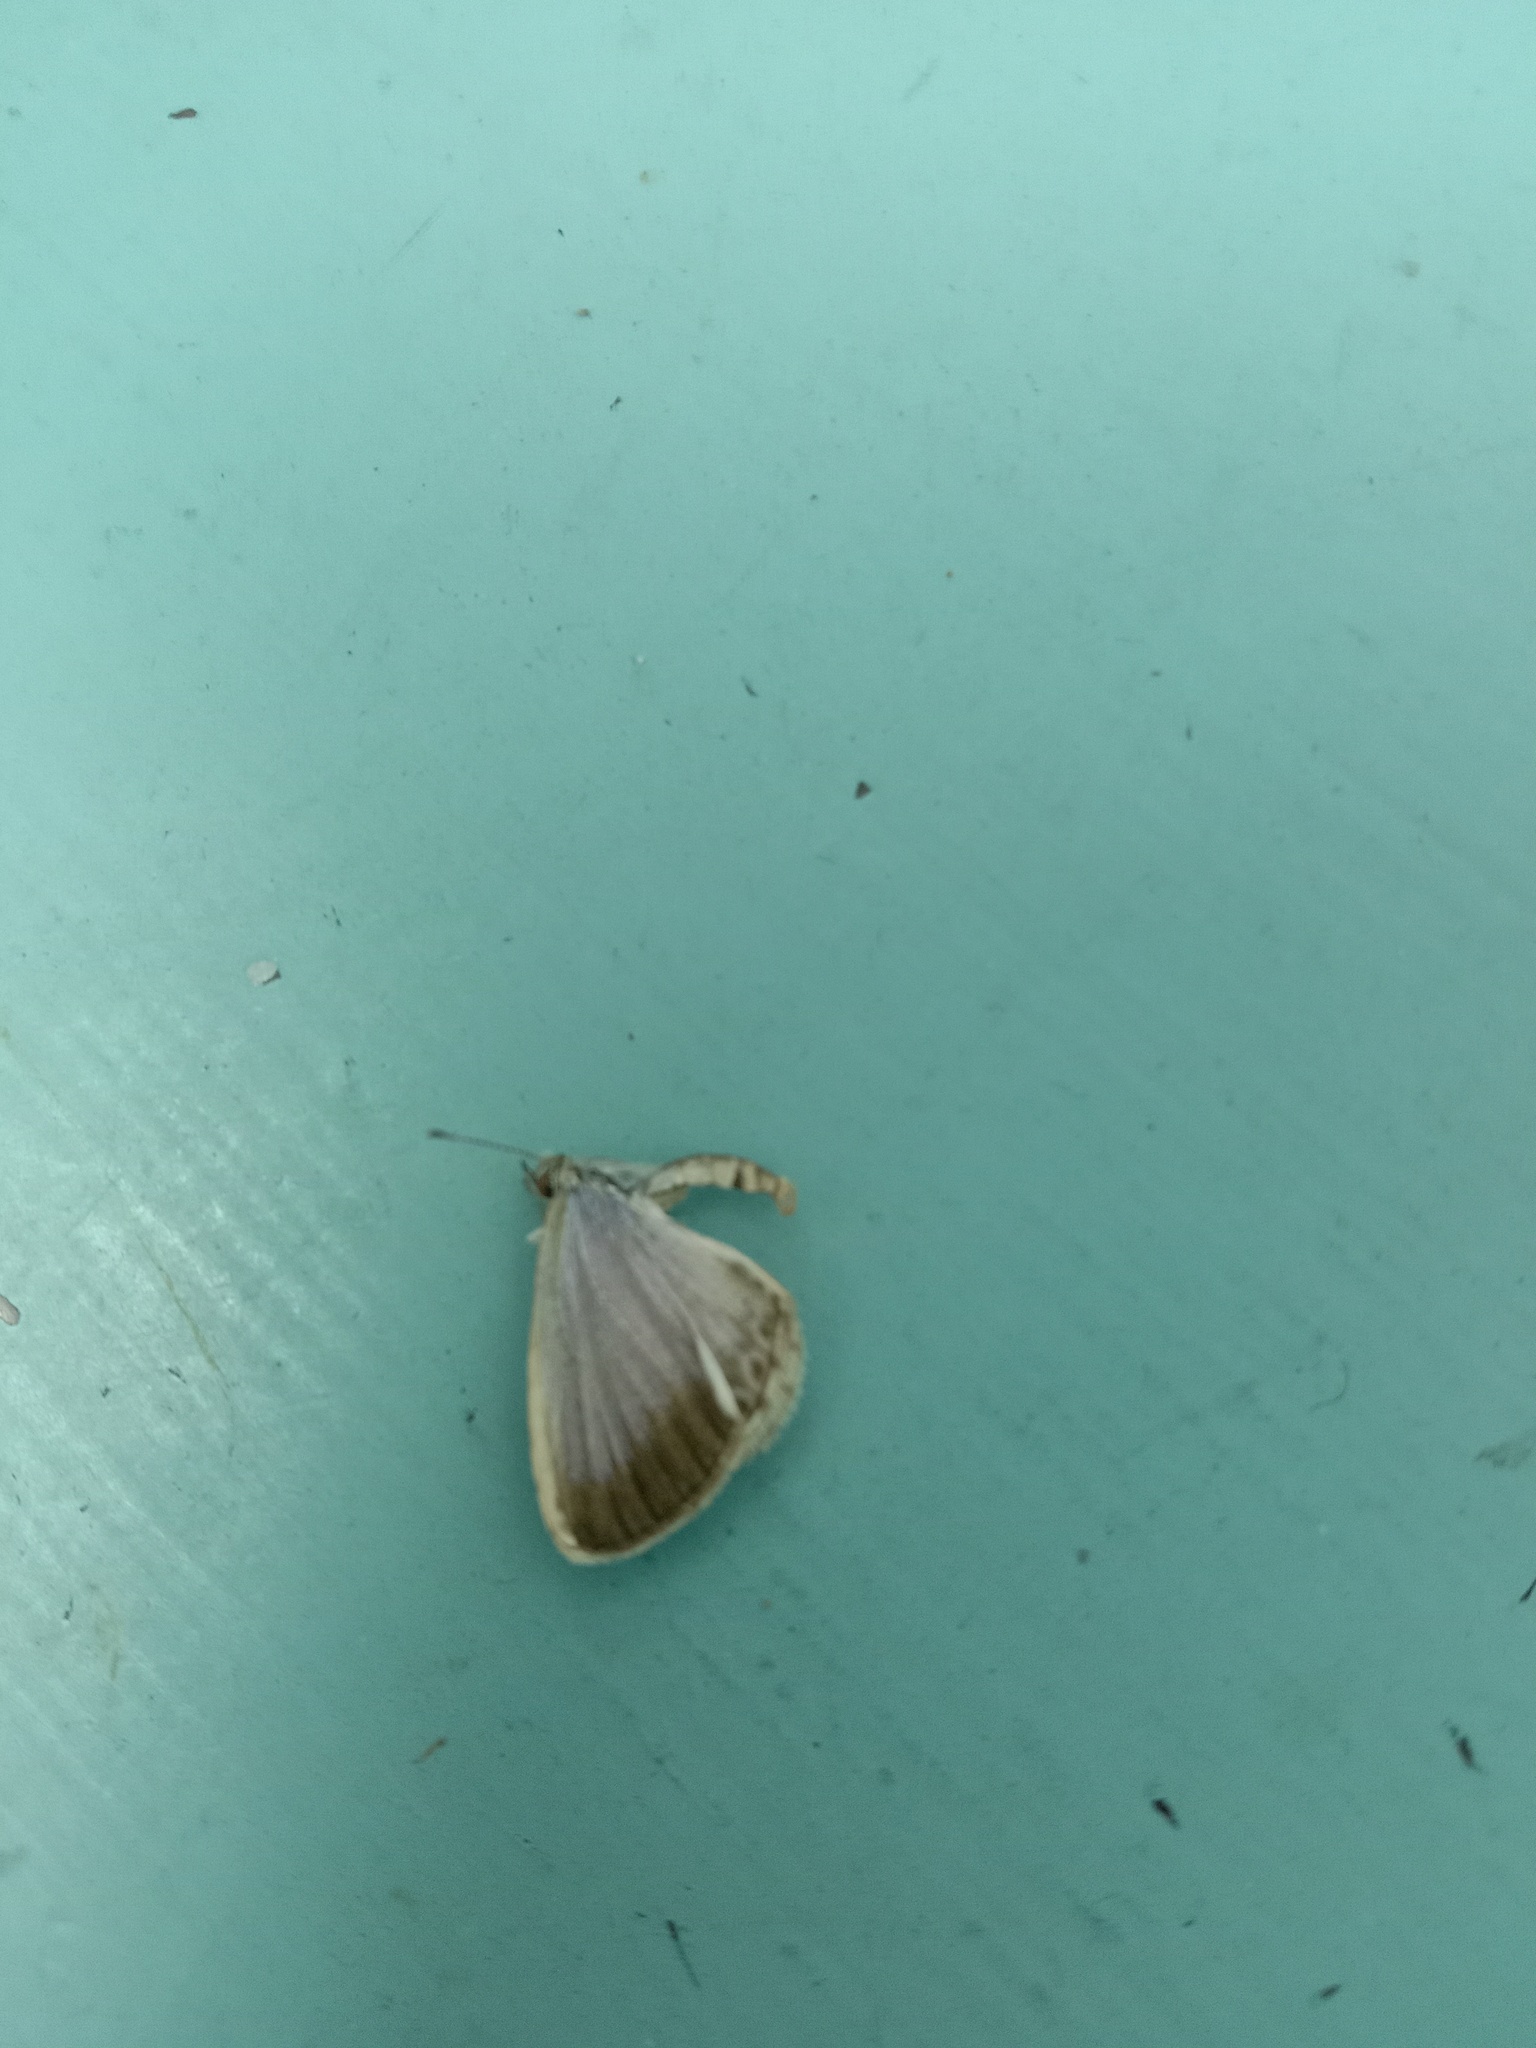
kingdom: Animalia
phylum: Arthropoda
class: Insecta
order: Lepidoptera
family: Lycaenidae
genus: Pseudozizeeria
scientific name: Pseudozizeeria maha
